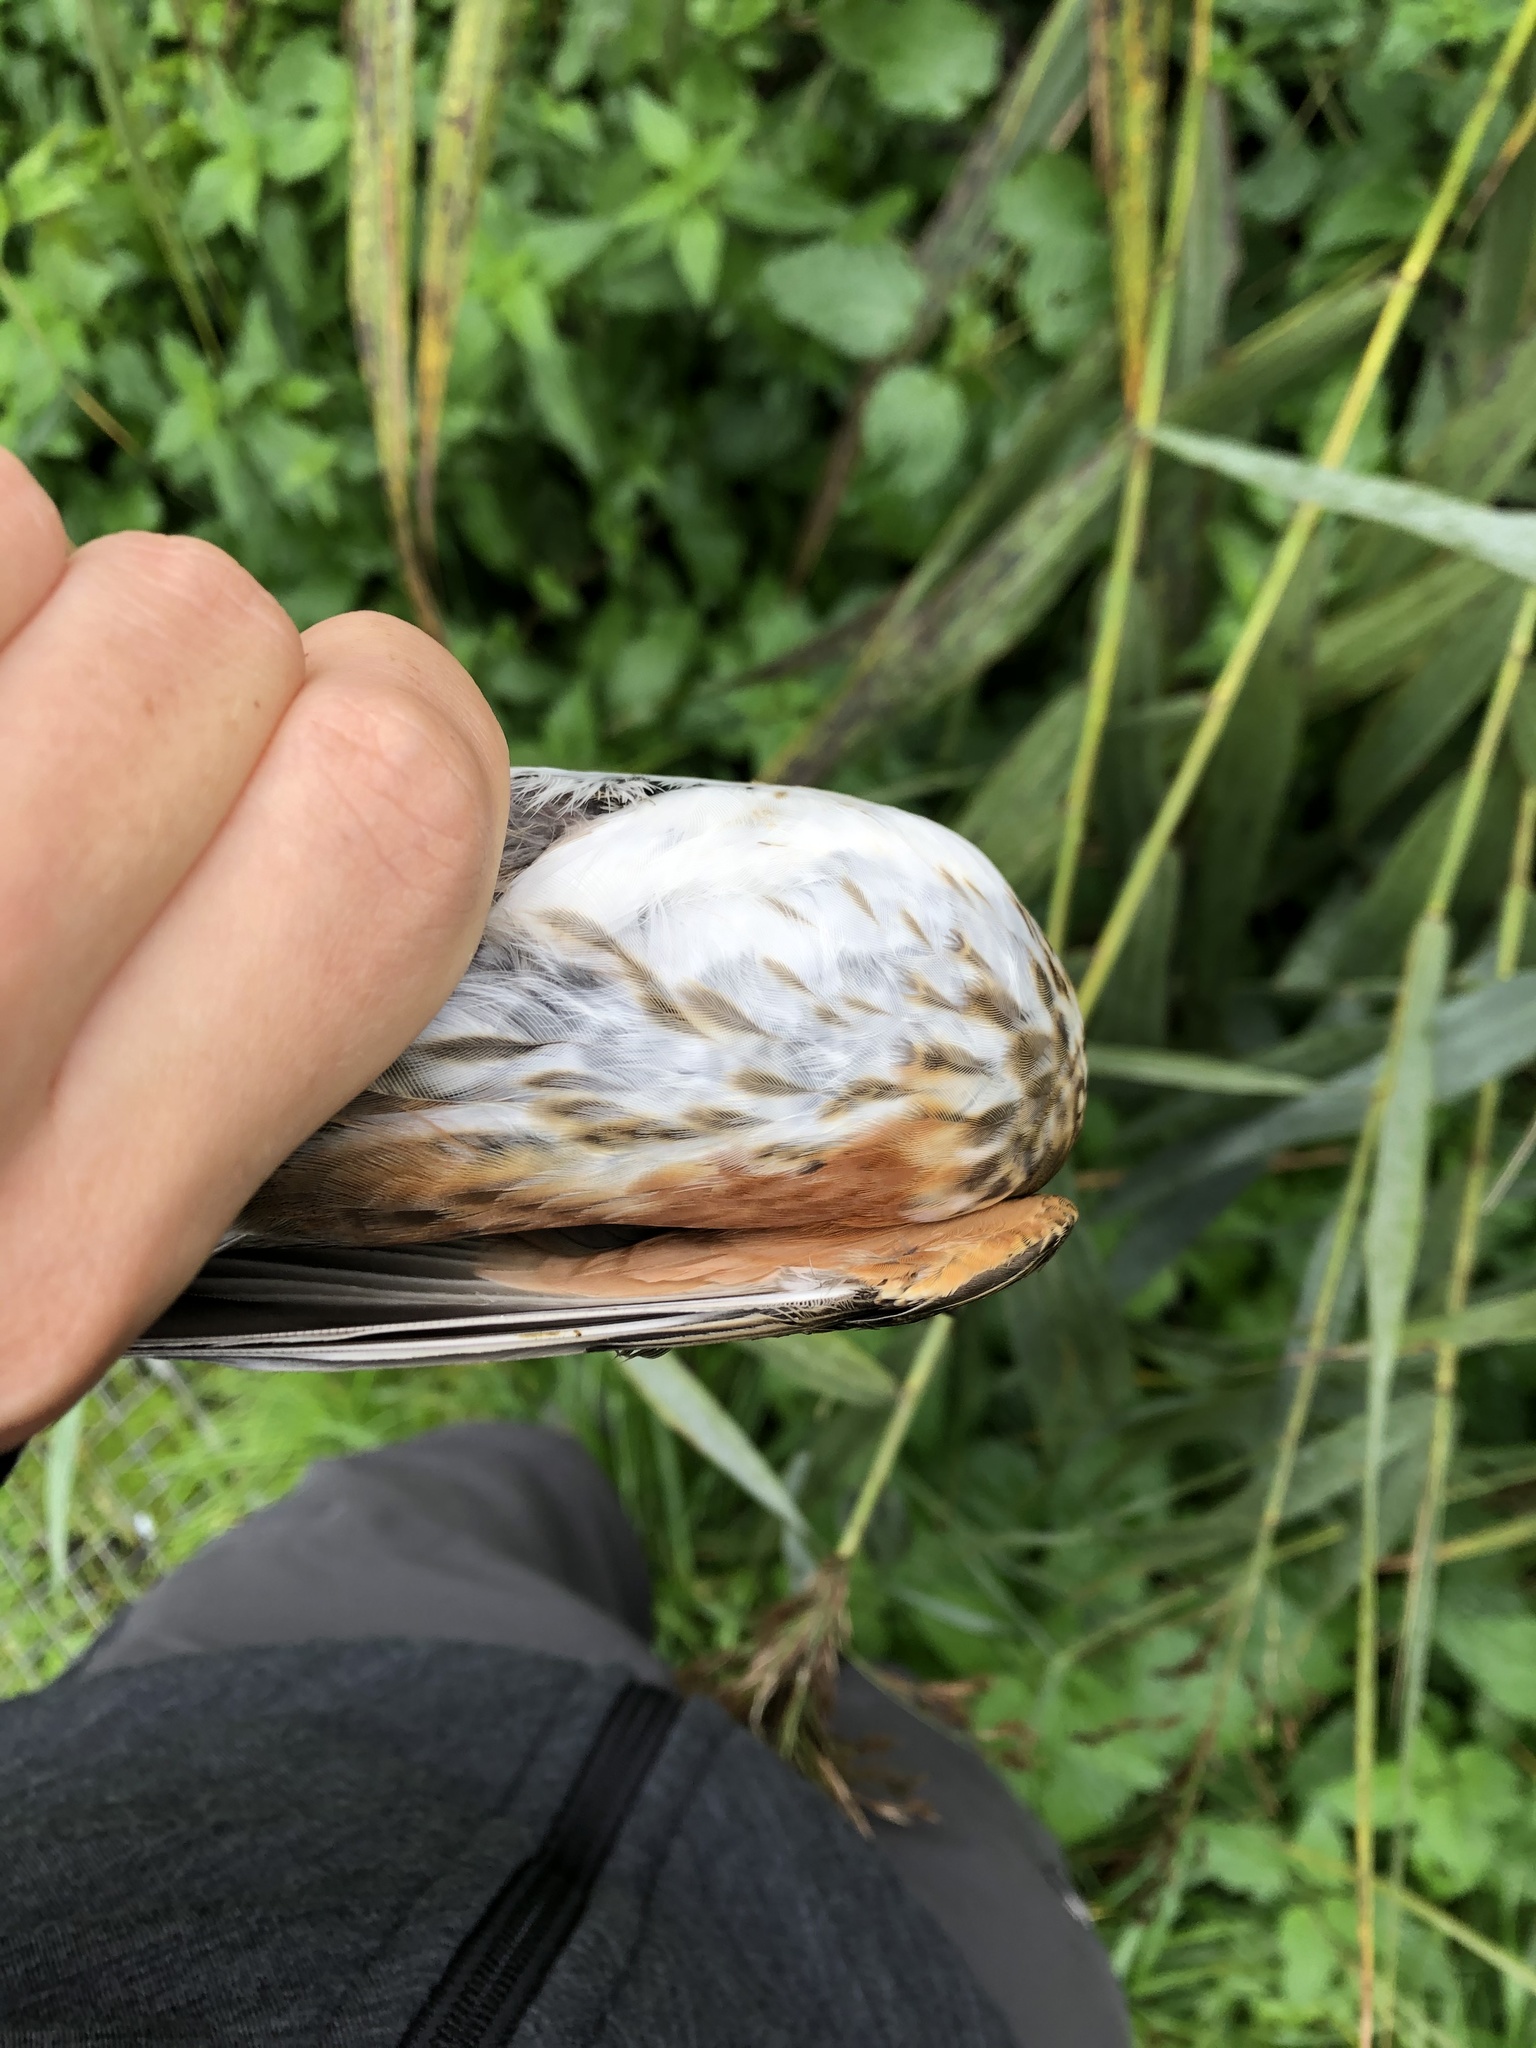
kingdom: Animalia
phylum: Chordata
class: Aves
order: Passeriformes
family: Turdidae
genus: Turdus
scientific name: Turdus iliacus
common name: Redwing
